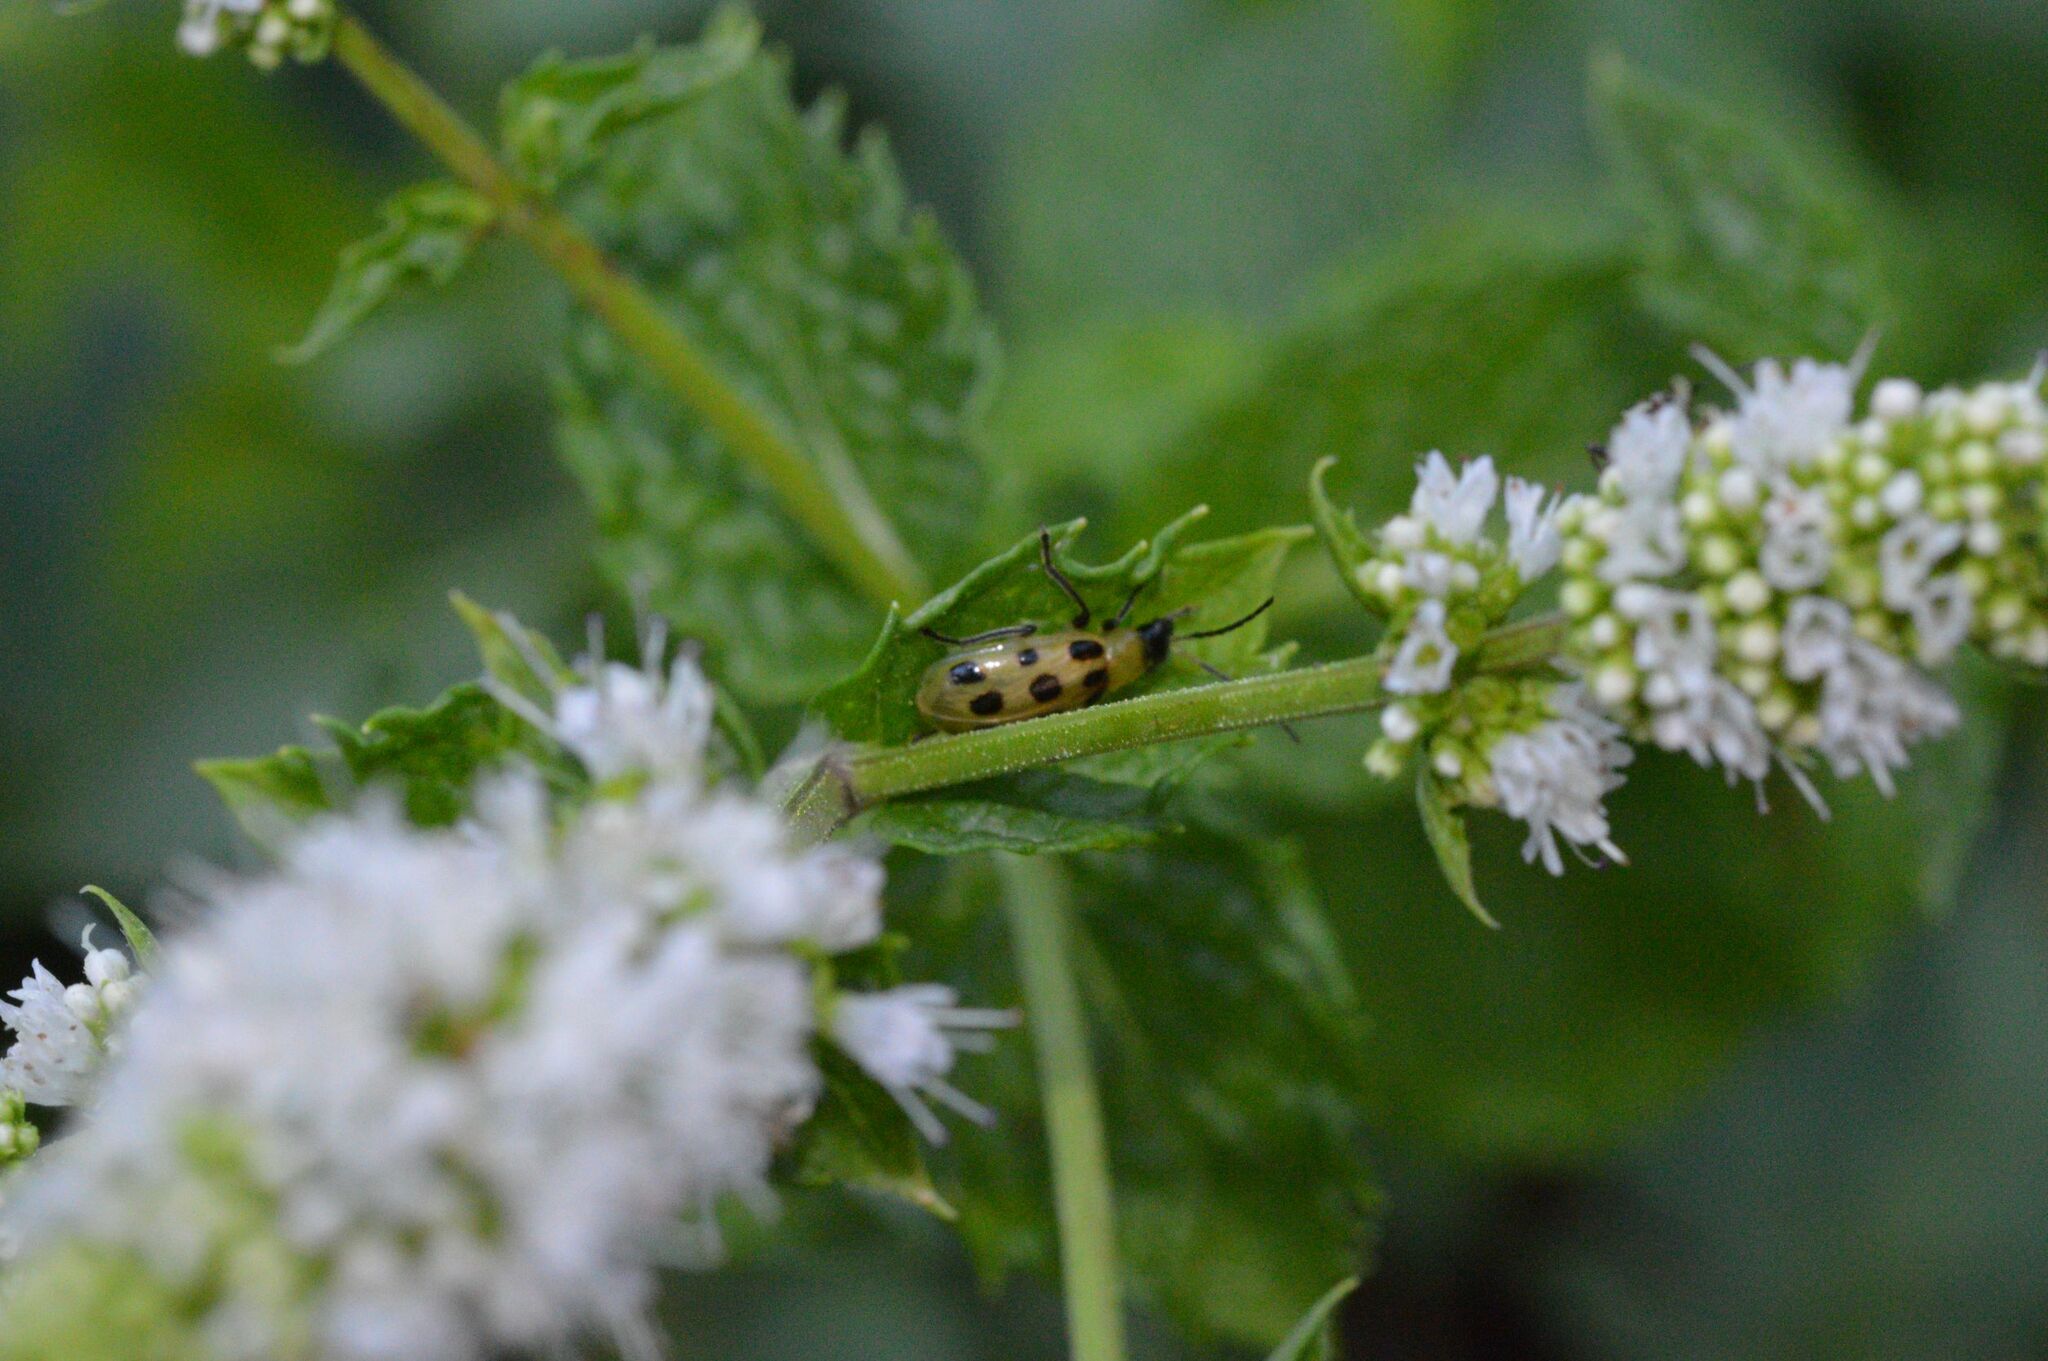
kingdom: Animalia
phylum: Arthropoda
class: Insecta
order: Coleoptera
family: Chrysomelidae
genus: Diabrotica
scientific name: Diabrotica undecimpunctata
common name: Spotted cucumber beetle
